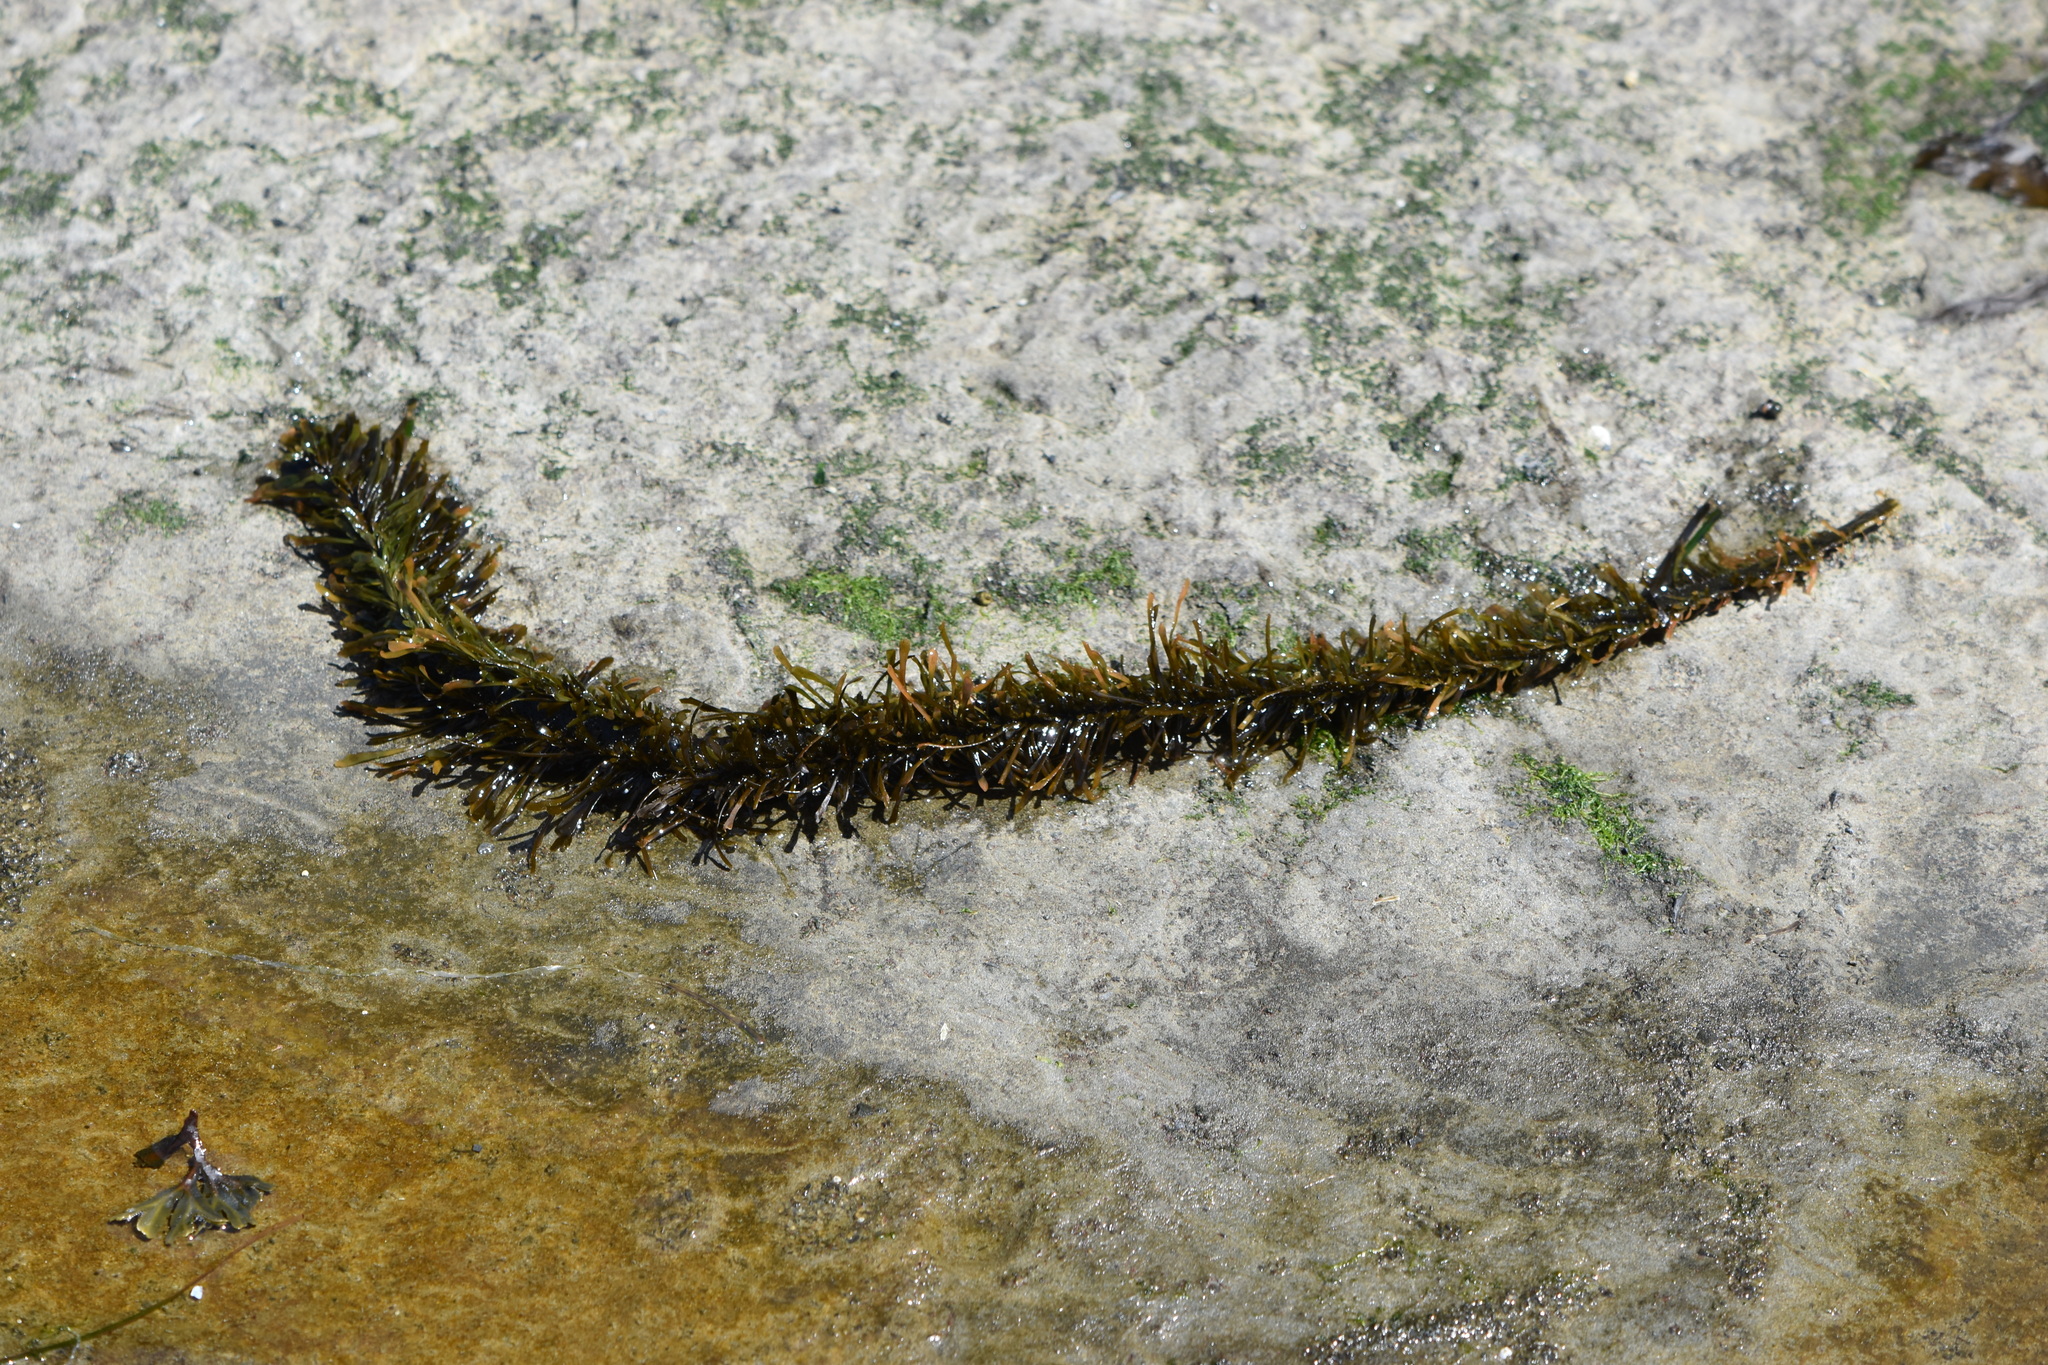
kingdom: Chromista
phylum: Ochrophyta
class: Phaeophyceae
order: Laminariales
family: Lessoniaceae
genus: Egregia
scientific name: Egregia menziesii
